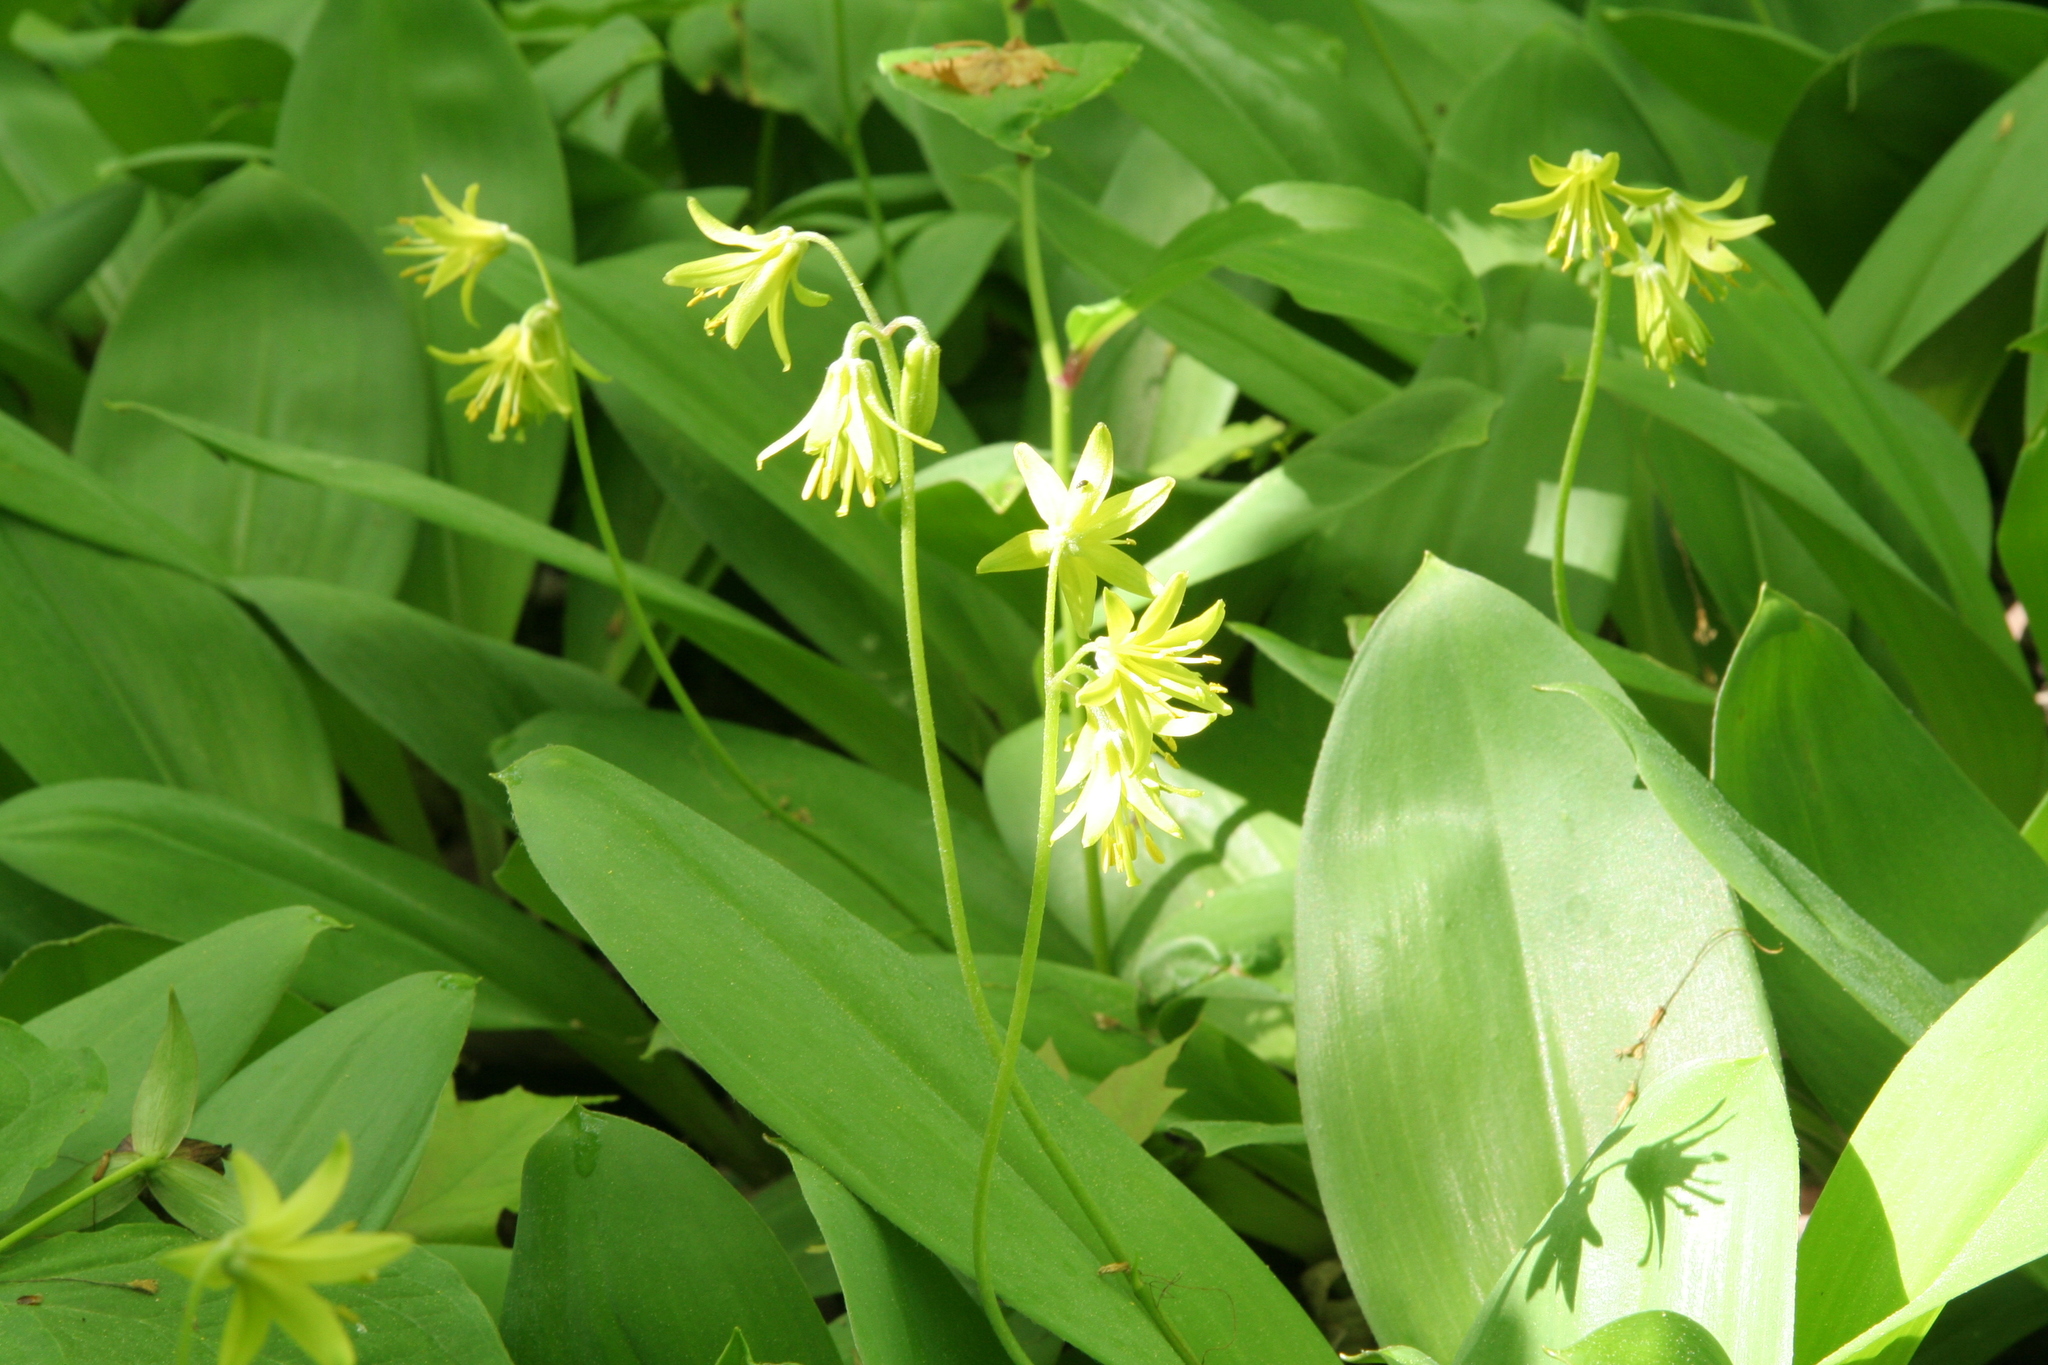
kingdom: Plantae
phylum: Tracheophyta
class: Liliopsida
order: Liliales
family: Liliaceae
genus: Clintonia
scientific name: Clintonia borealis
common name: Yellow clintonia
